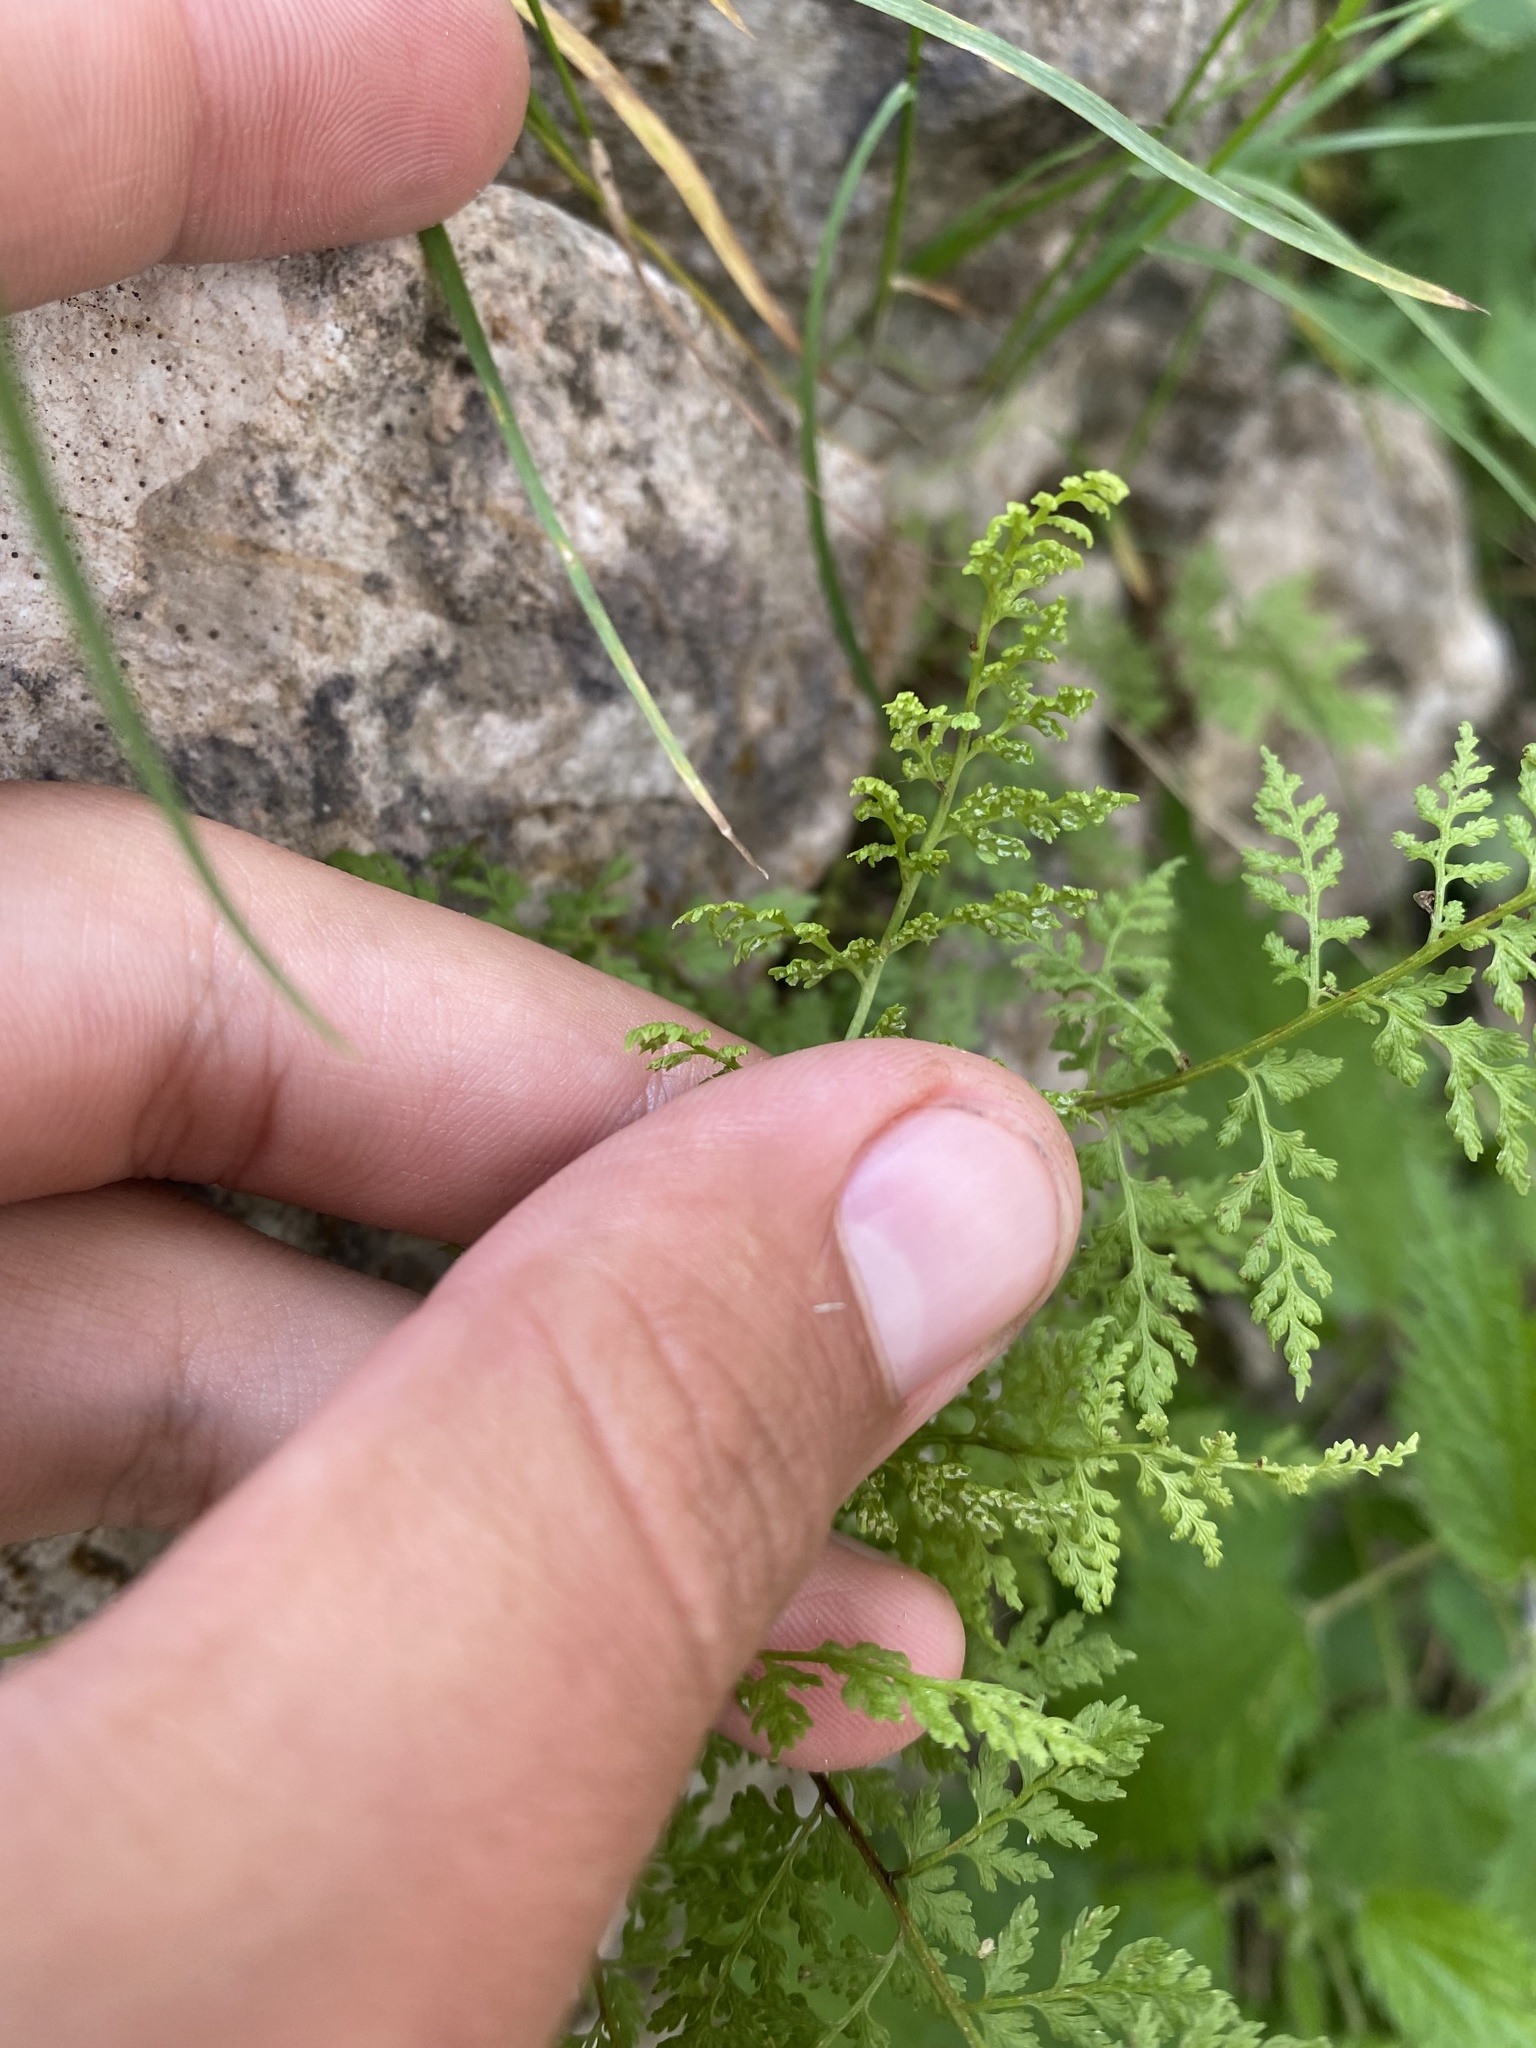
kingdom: Plantae
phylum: Tracheophyta
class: Polypodiopsida
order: Polypodiales
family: Cystopteridaceae
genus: Cystopteris
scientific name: Cystopteris fragilis
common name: Brittle bladder fern
